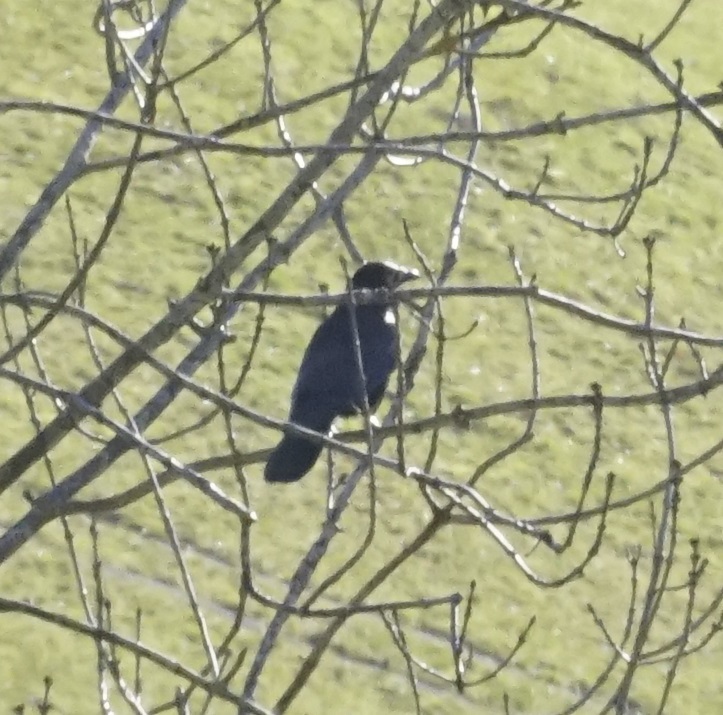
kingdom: Animalia
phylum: Chordata
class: Aves
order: Passeriformes
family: Corvidae
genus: Corvus
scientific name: Corvus corone
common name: Carrion crow
